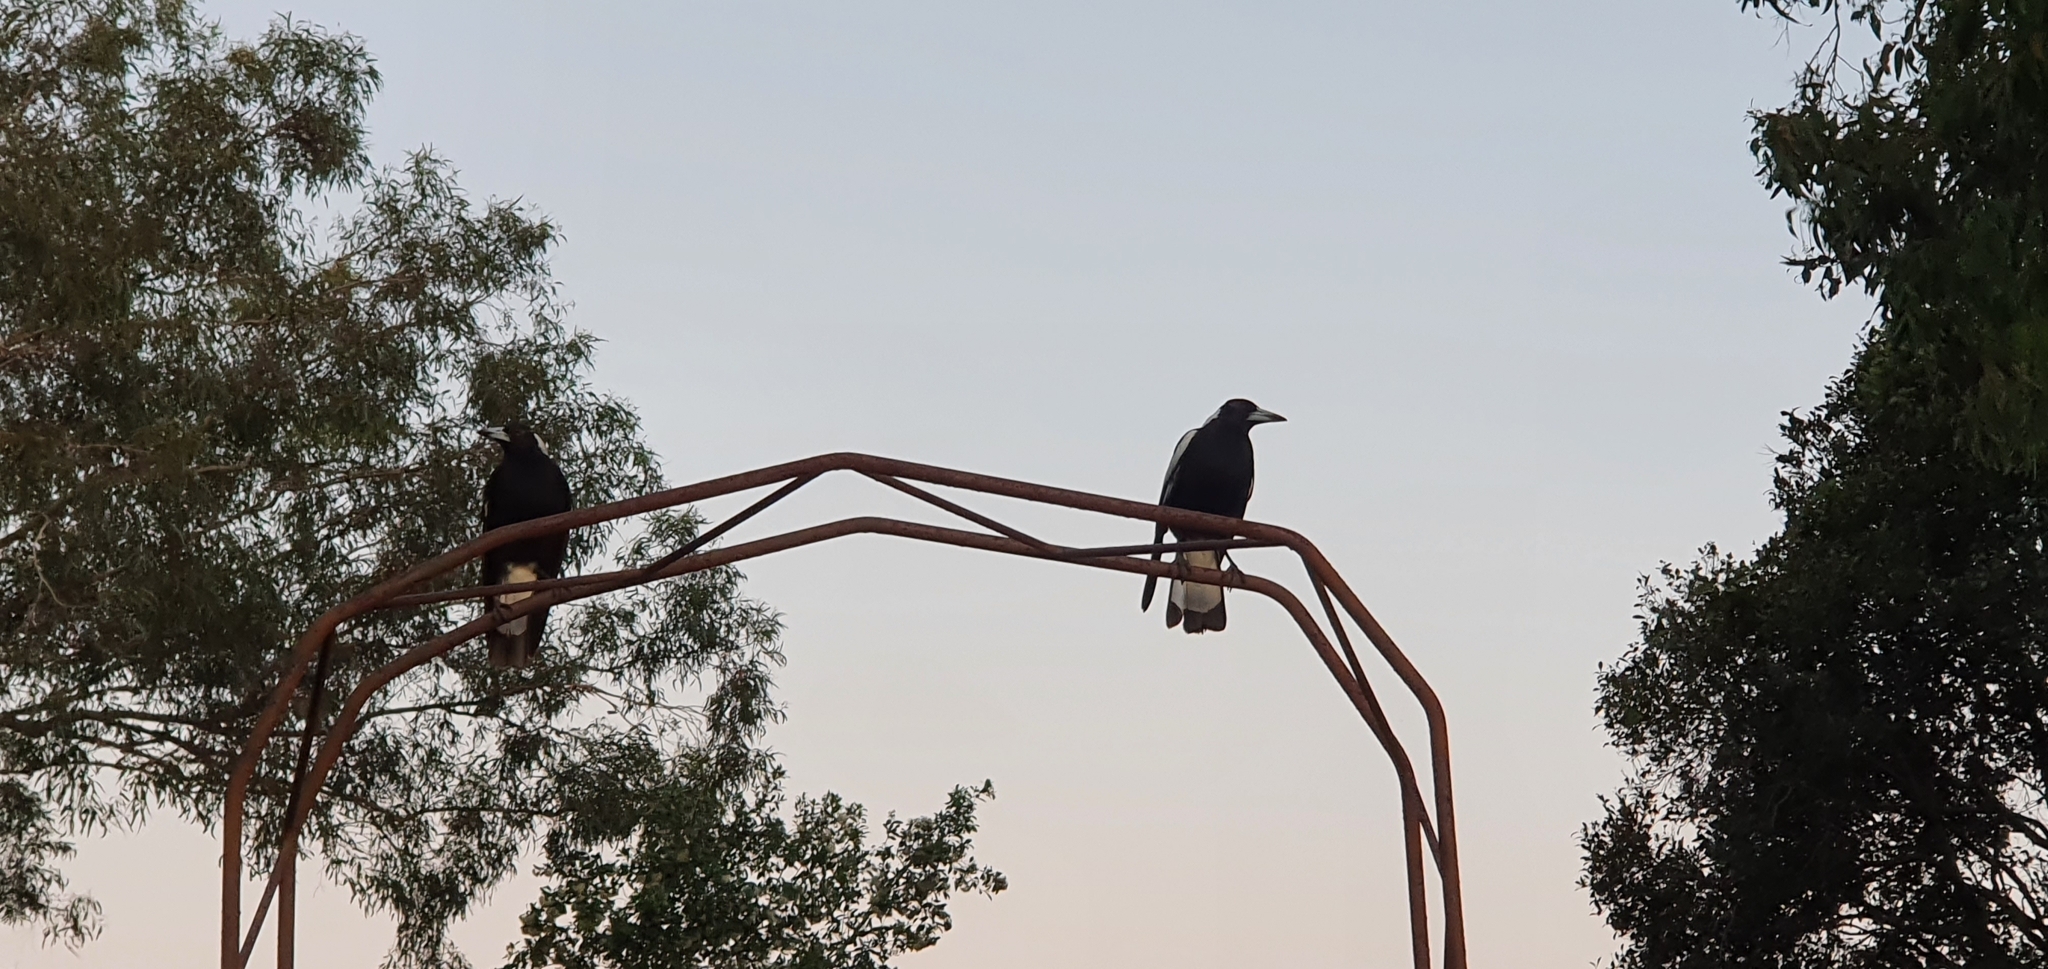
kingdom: Animalia
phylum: Chordata
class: Aves
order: Passeriformes
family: Cracticidae
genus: Gymnorhina
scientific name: Gymnorhina tibicen
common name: Australian magpie
